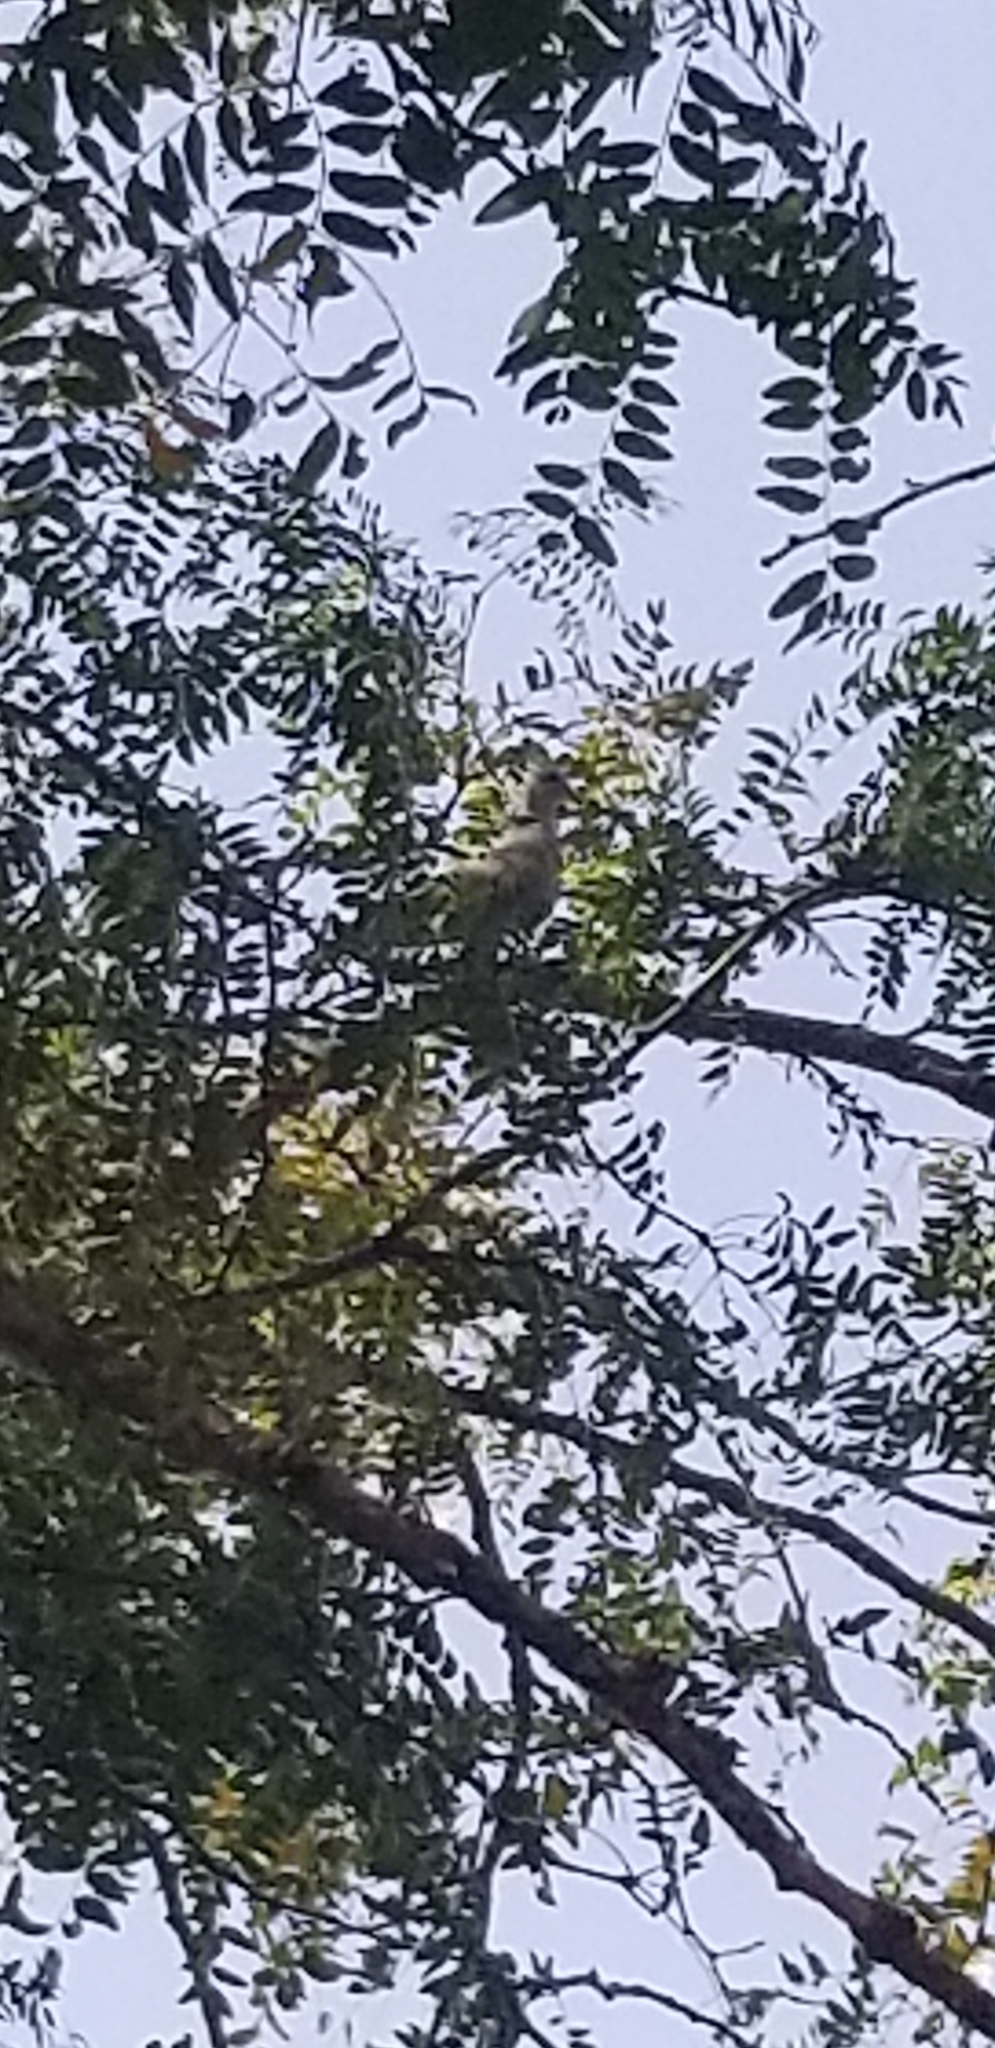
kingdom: Animalia
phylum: Chordata
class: Aves
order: Columbiformes
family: Columbidae
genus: Streptopelia
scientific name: Streptopelia decaocto
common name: Eurasian collared dove
